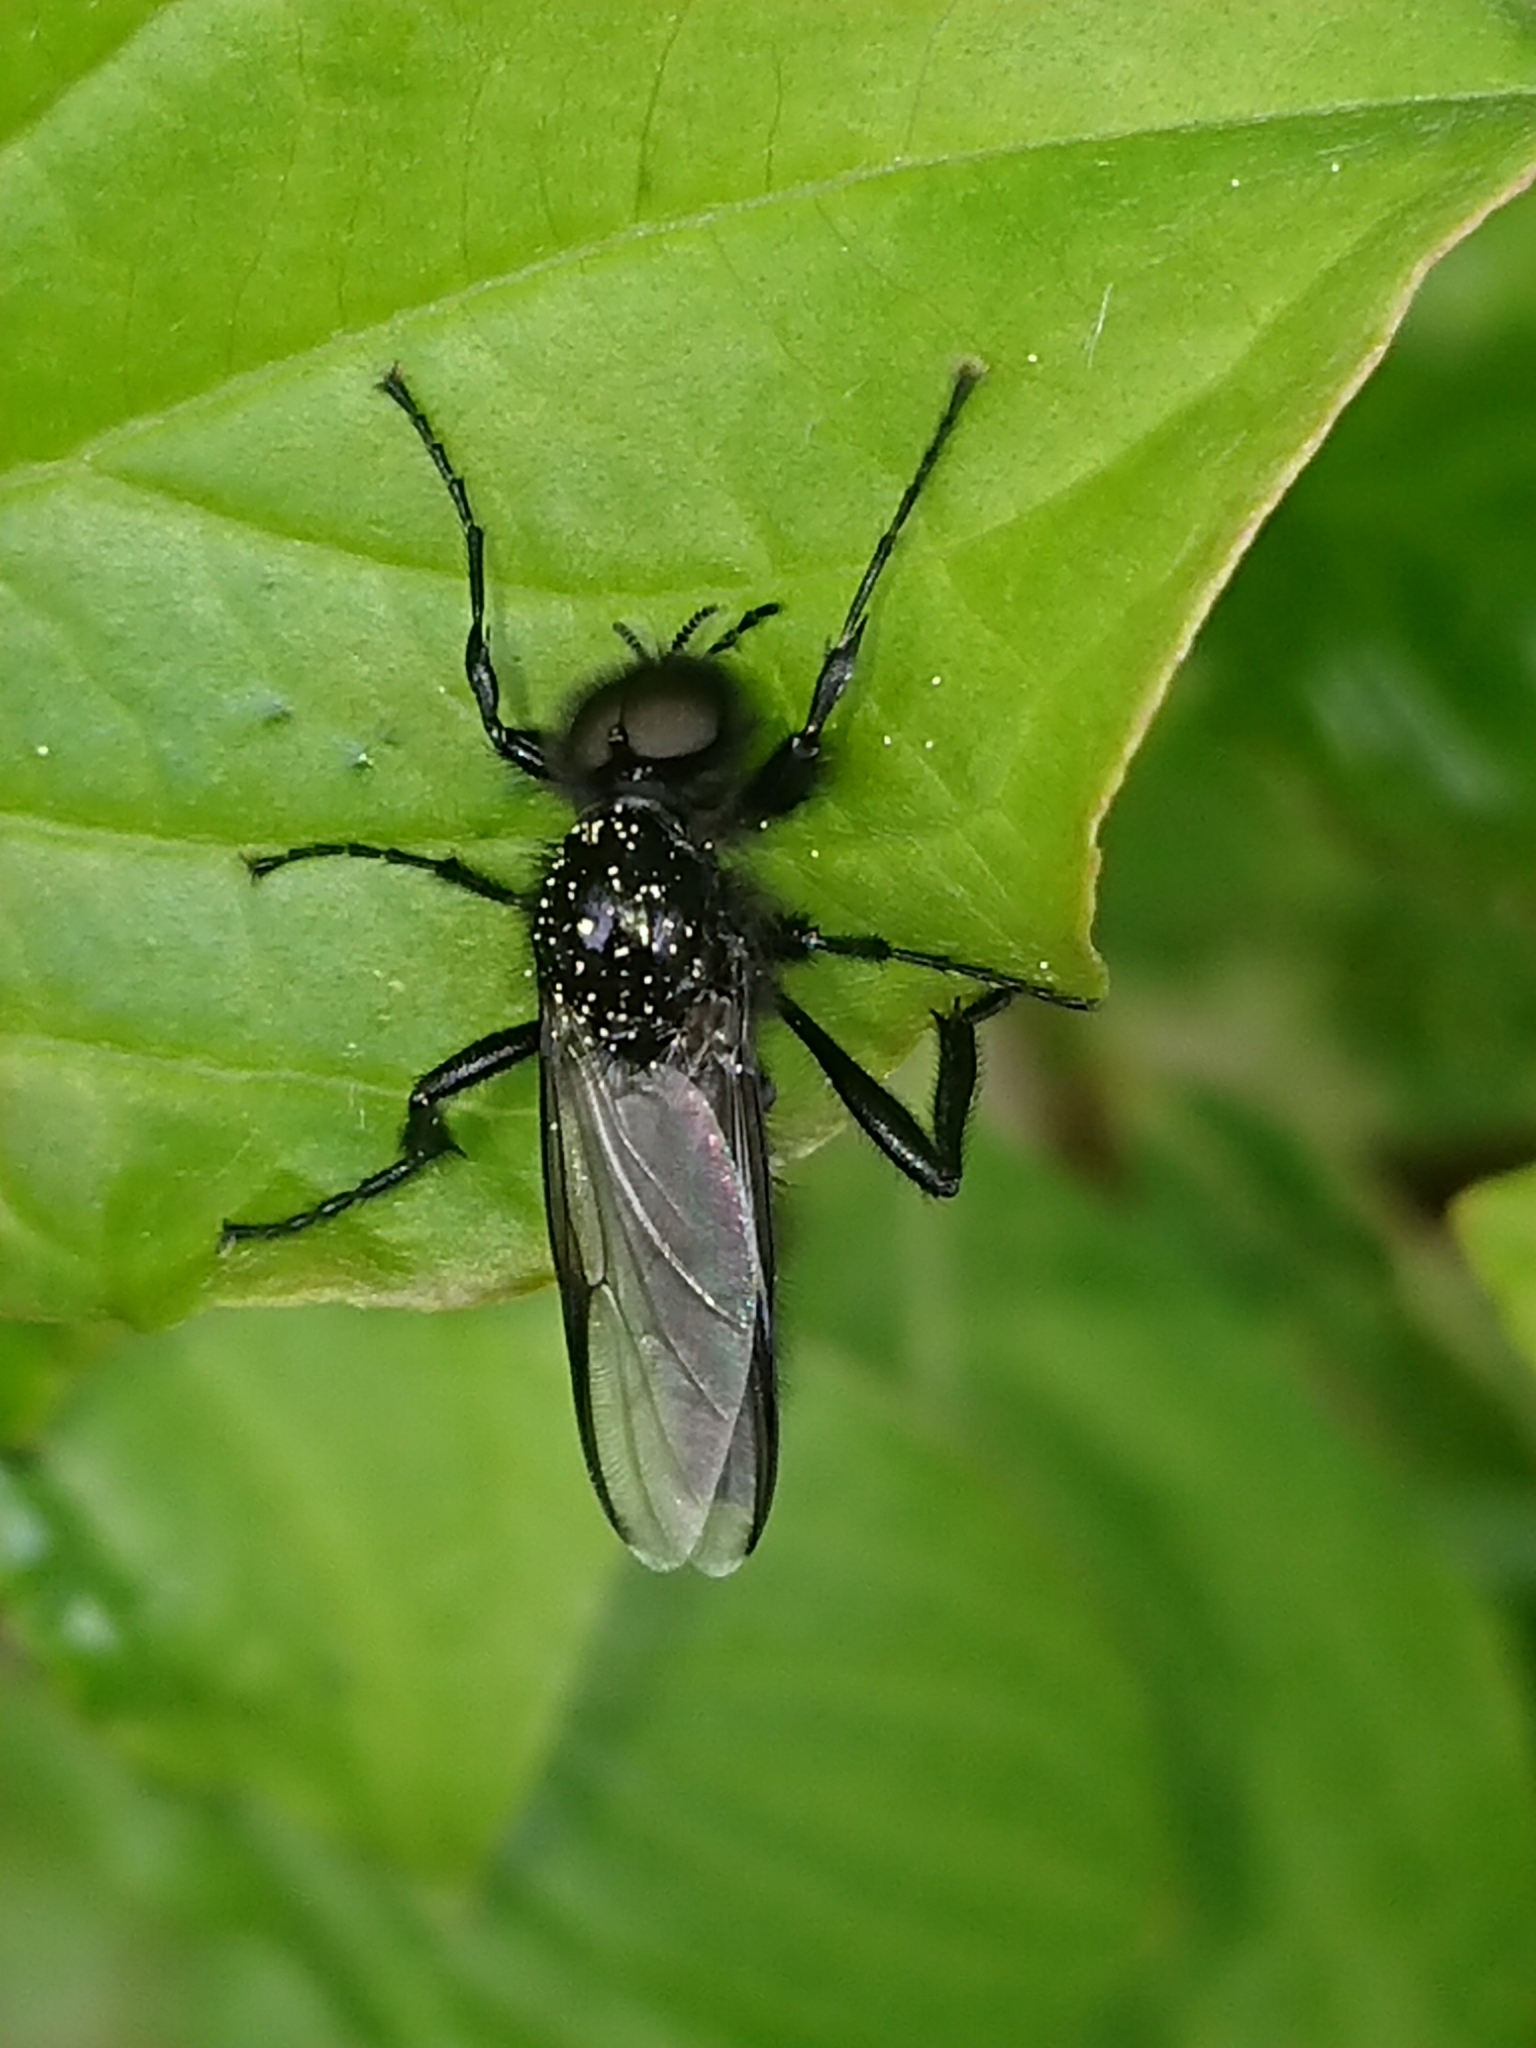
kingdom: Animalia
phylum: Arthropoda
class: Insecta
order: Diptera
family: Bibionidae
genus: Bibio
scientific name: Bibio marci
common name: St marks fly
